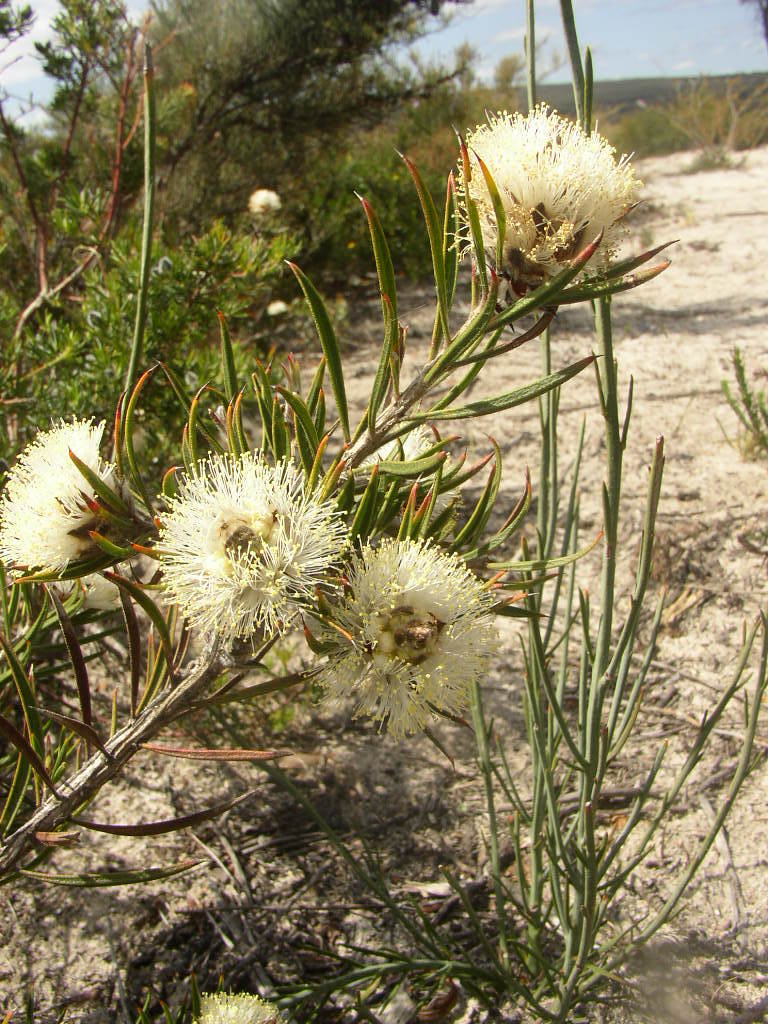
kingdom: Plantae
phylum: Tracheophyta
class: Magnoliopsida
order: Myrtales
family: Myrtaceae
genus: Melaleuca
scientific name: Melaleuca cowleyae
